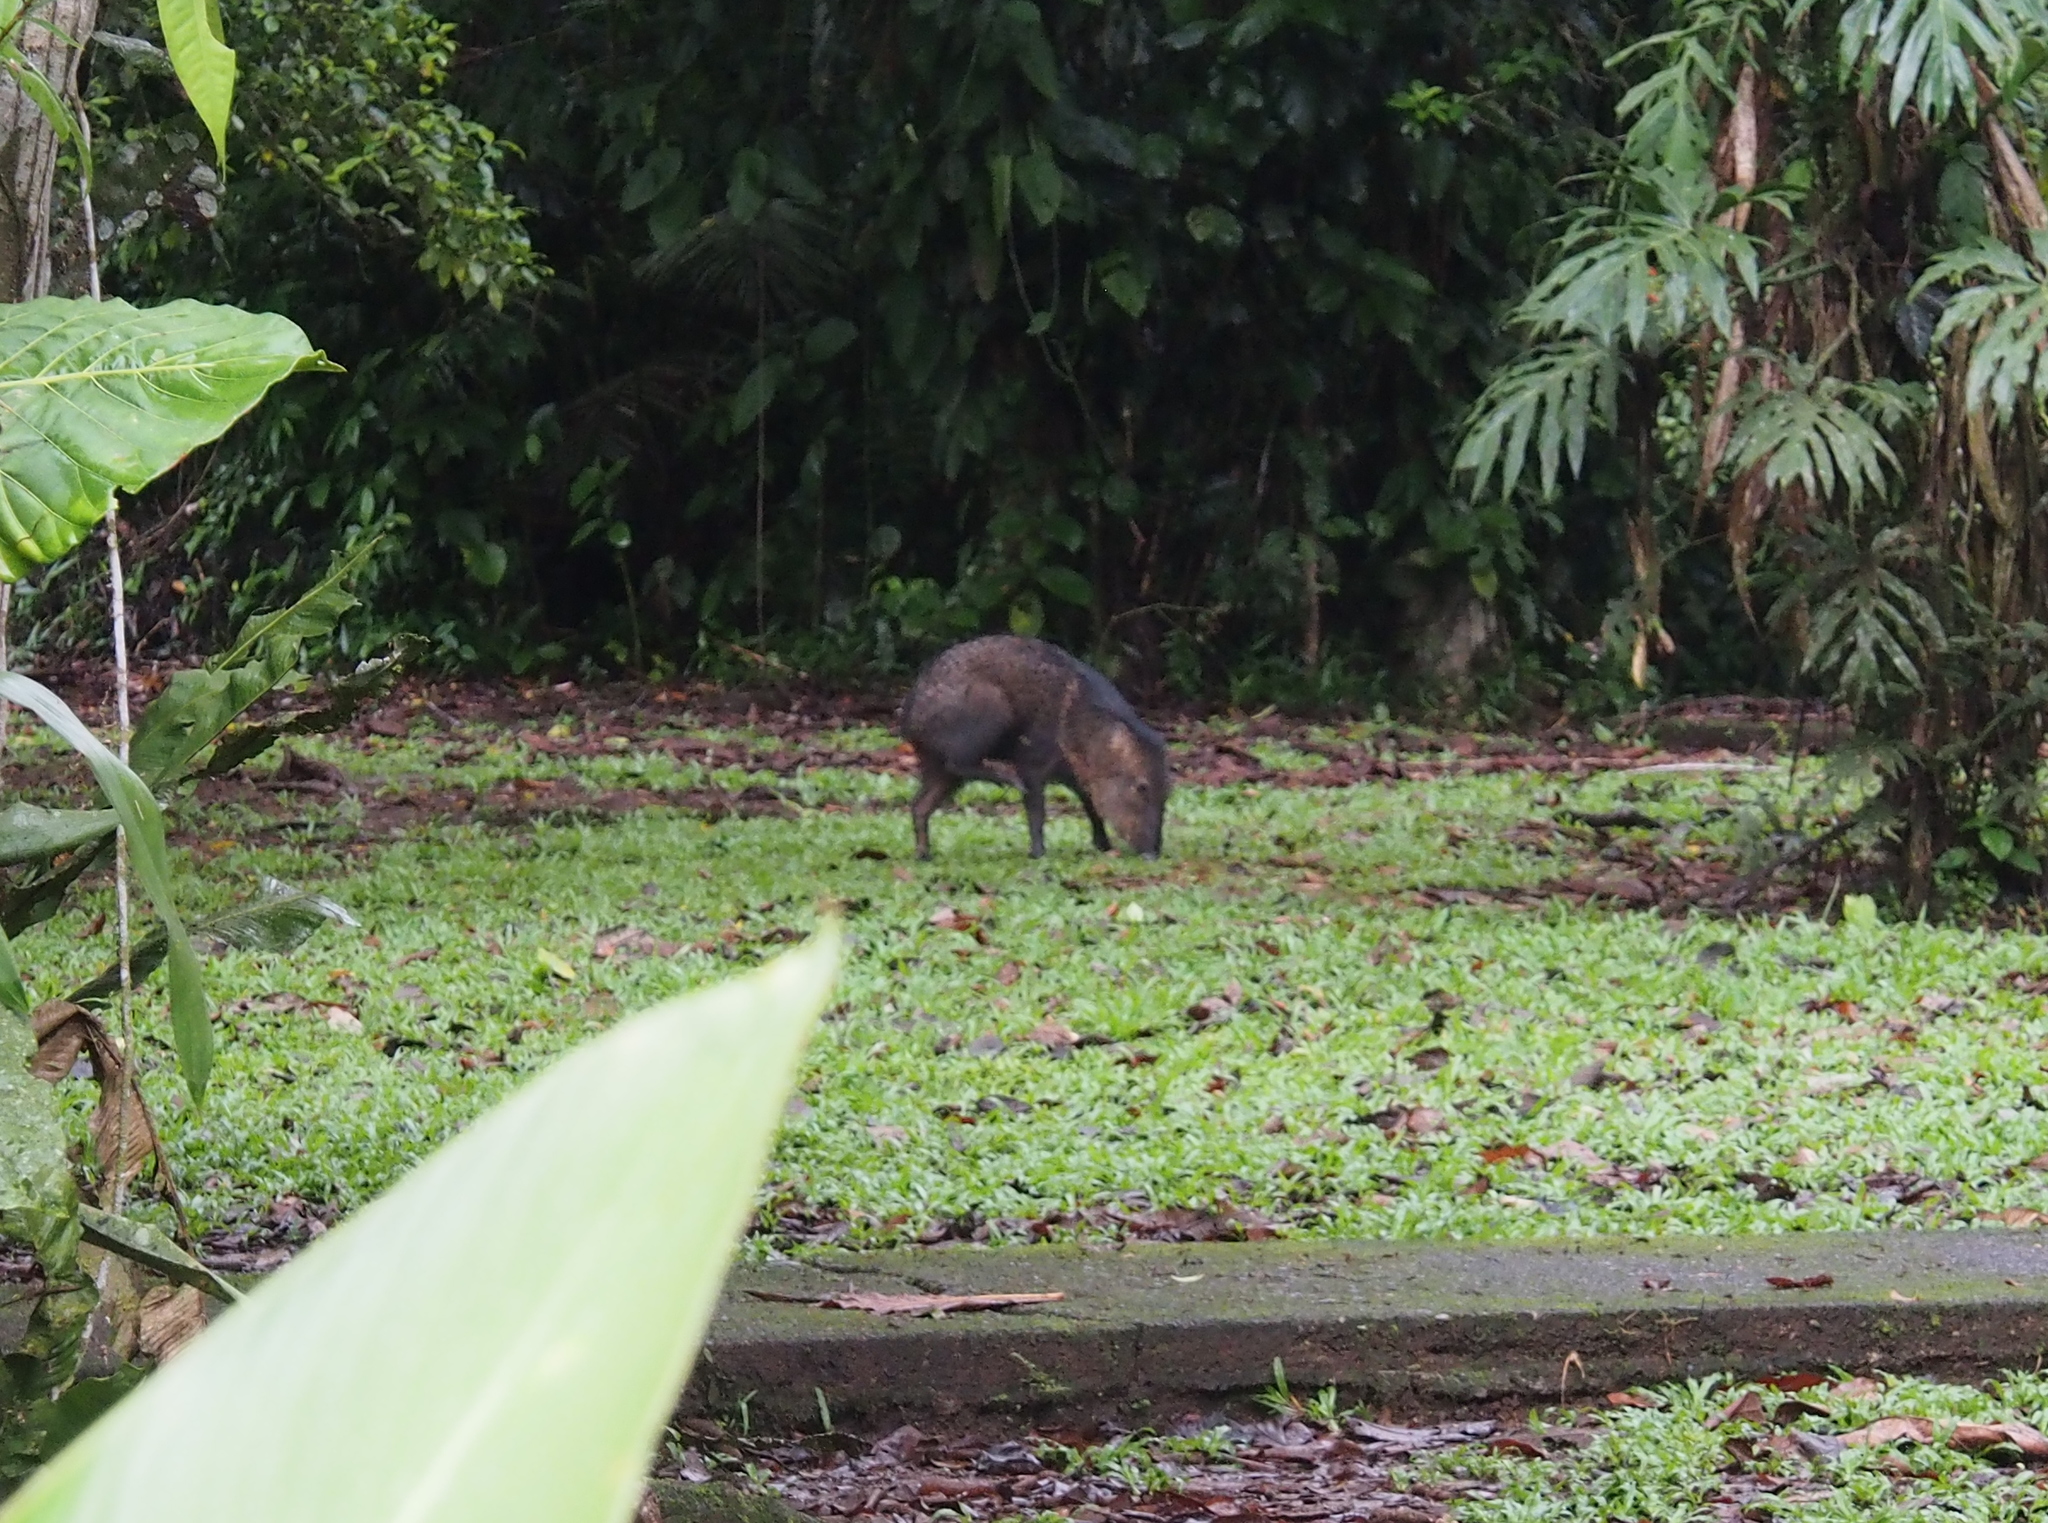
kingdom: Animalia
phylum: Chordata
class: Mammalia
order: Artiodactyla
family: Tayassuidae
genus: Pecari
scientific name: Pecari tajacu
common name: Collared peccary
